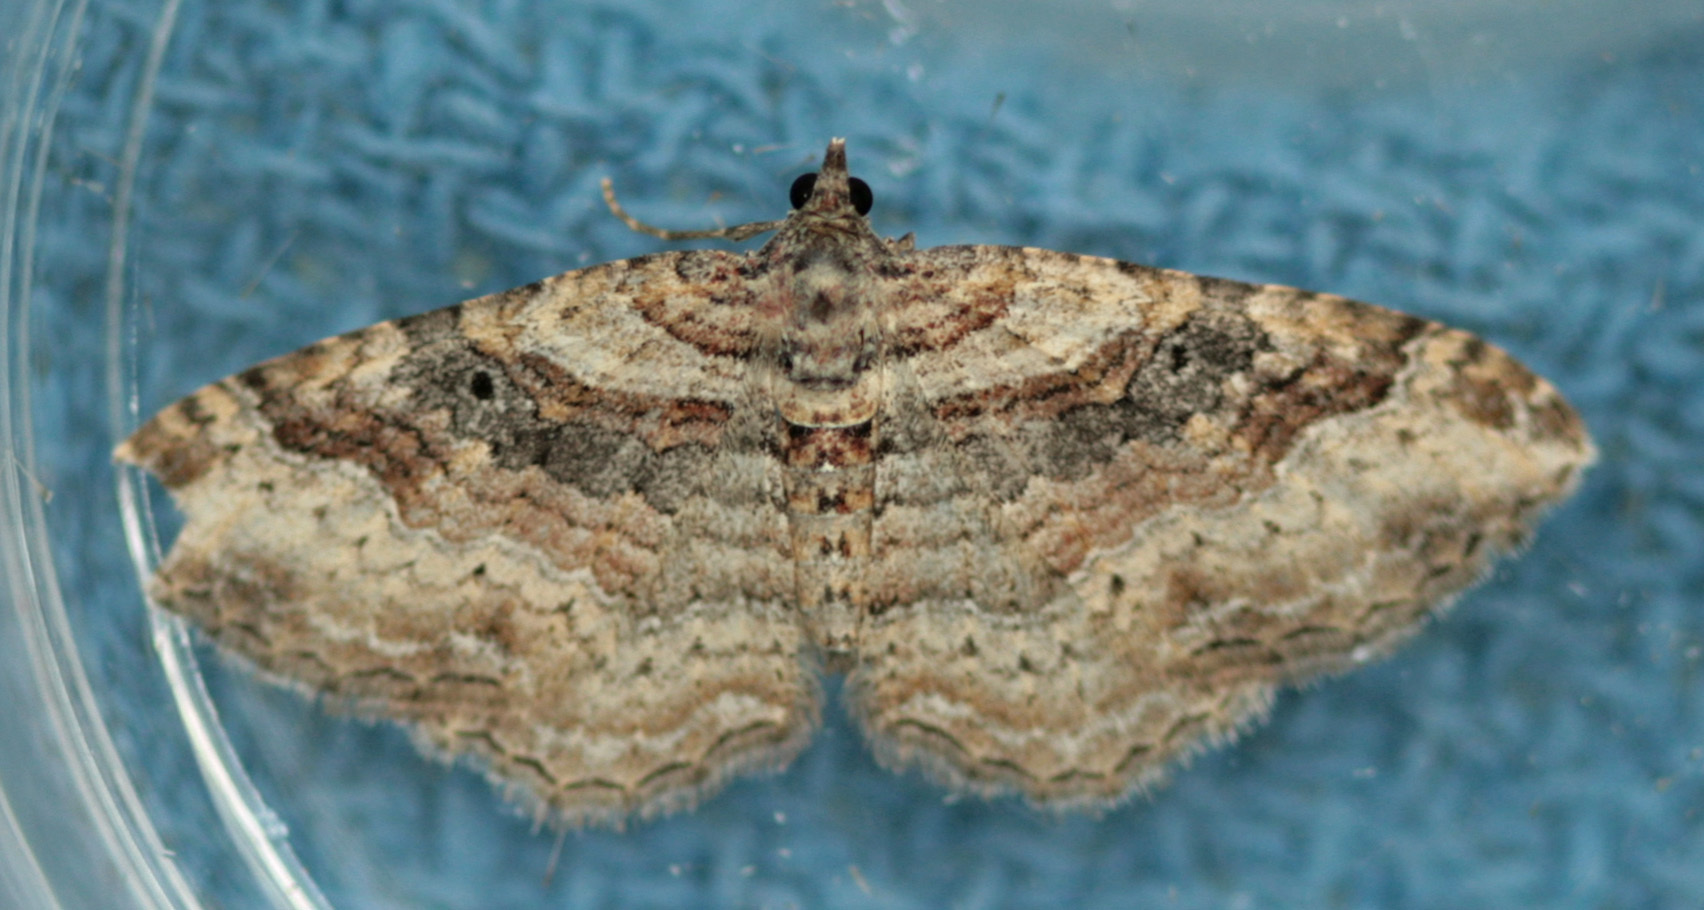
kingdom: Animalia
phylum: Arthropoda
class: Insecta
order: Lepidoptera
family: Geometridae
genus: Costaconvexa
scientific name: Costaconvexa centrostrigaria
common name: Bent-line carpet
